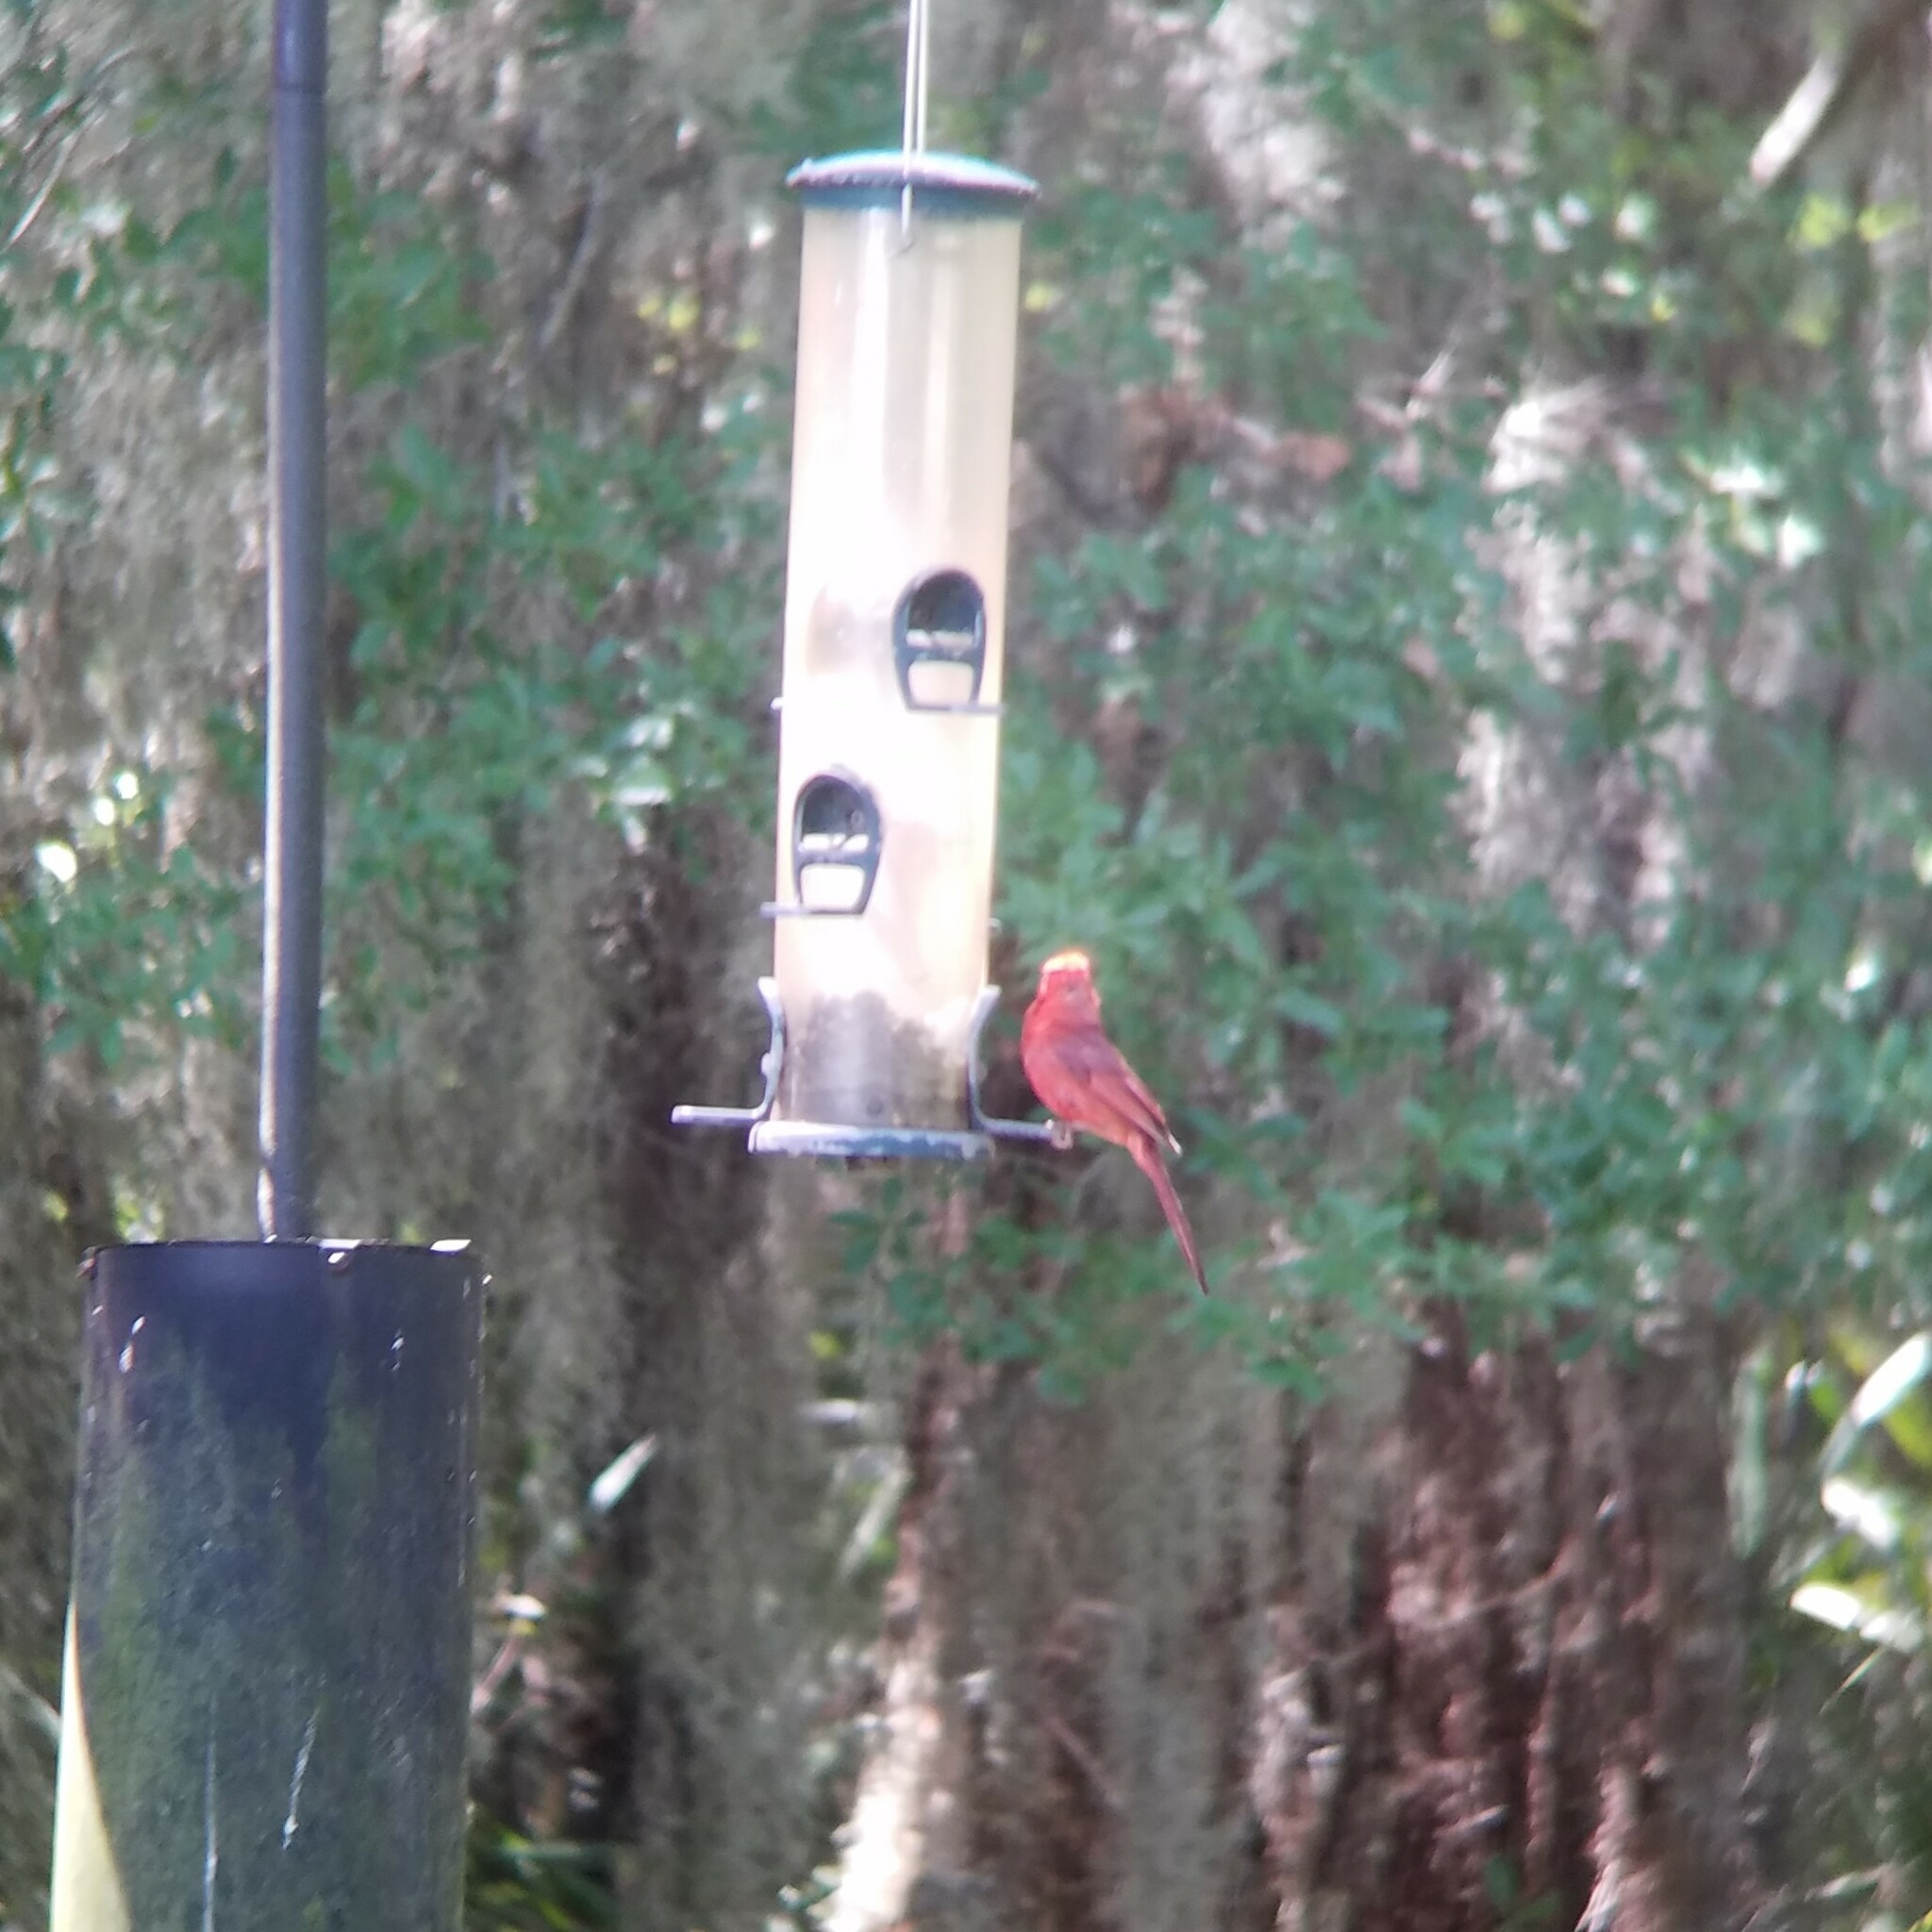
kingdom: Animalia
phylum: Chordata
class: Aves
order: Passeriformes
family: Cardinalidae
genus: Cardinalis
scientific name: Cardinalis cardinalis
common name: Northern cardinal
